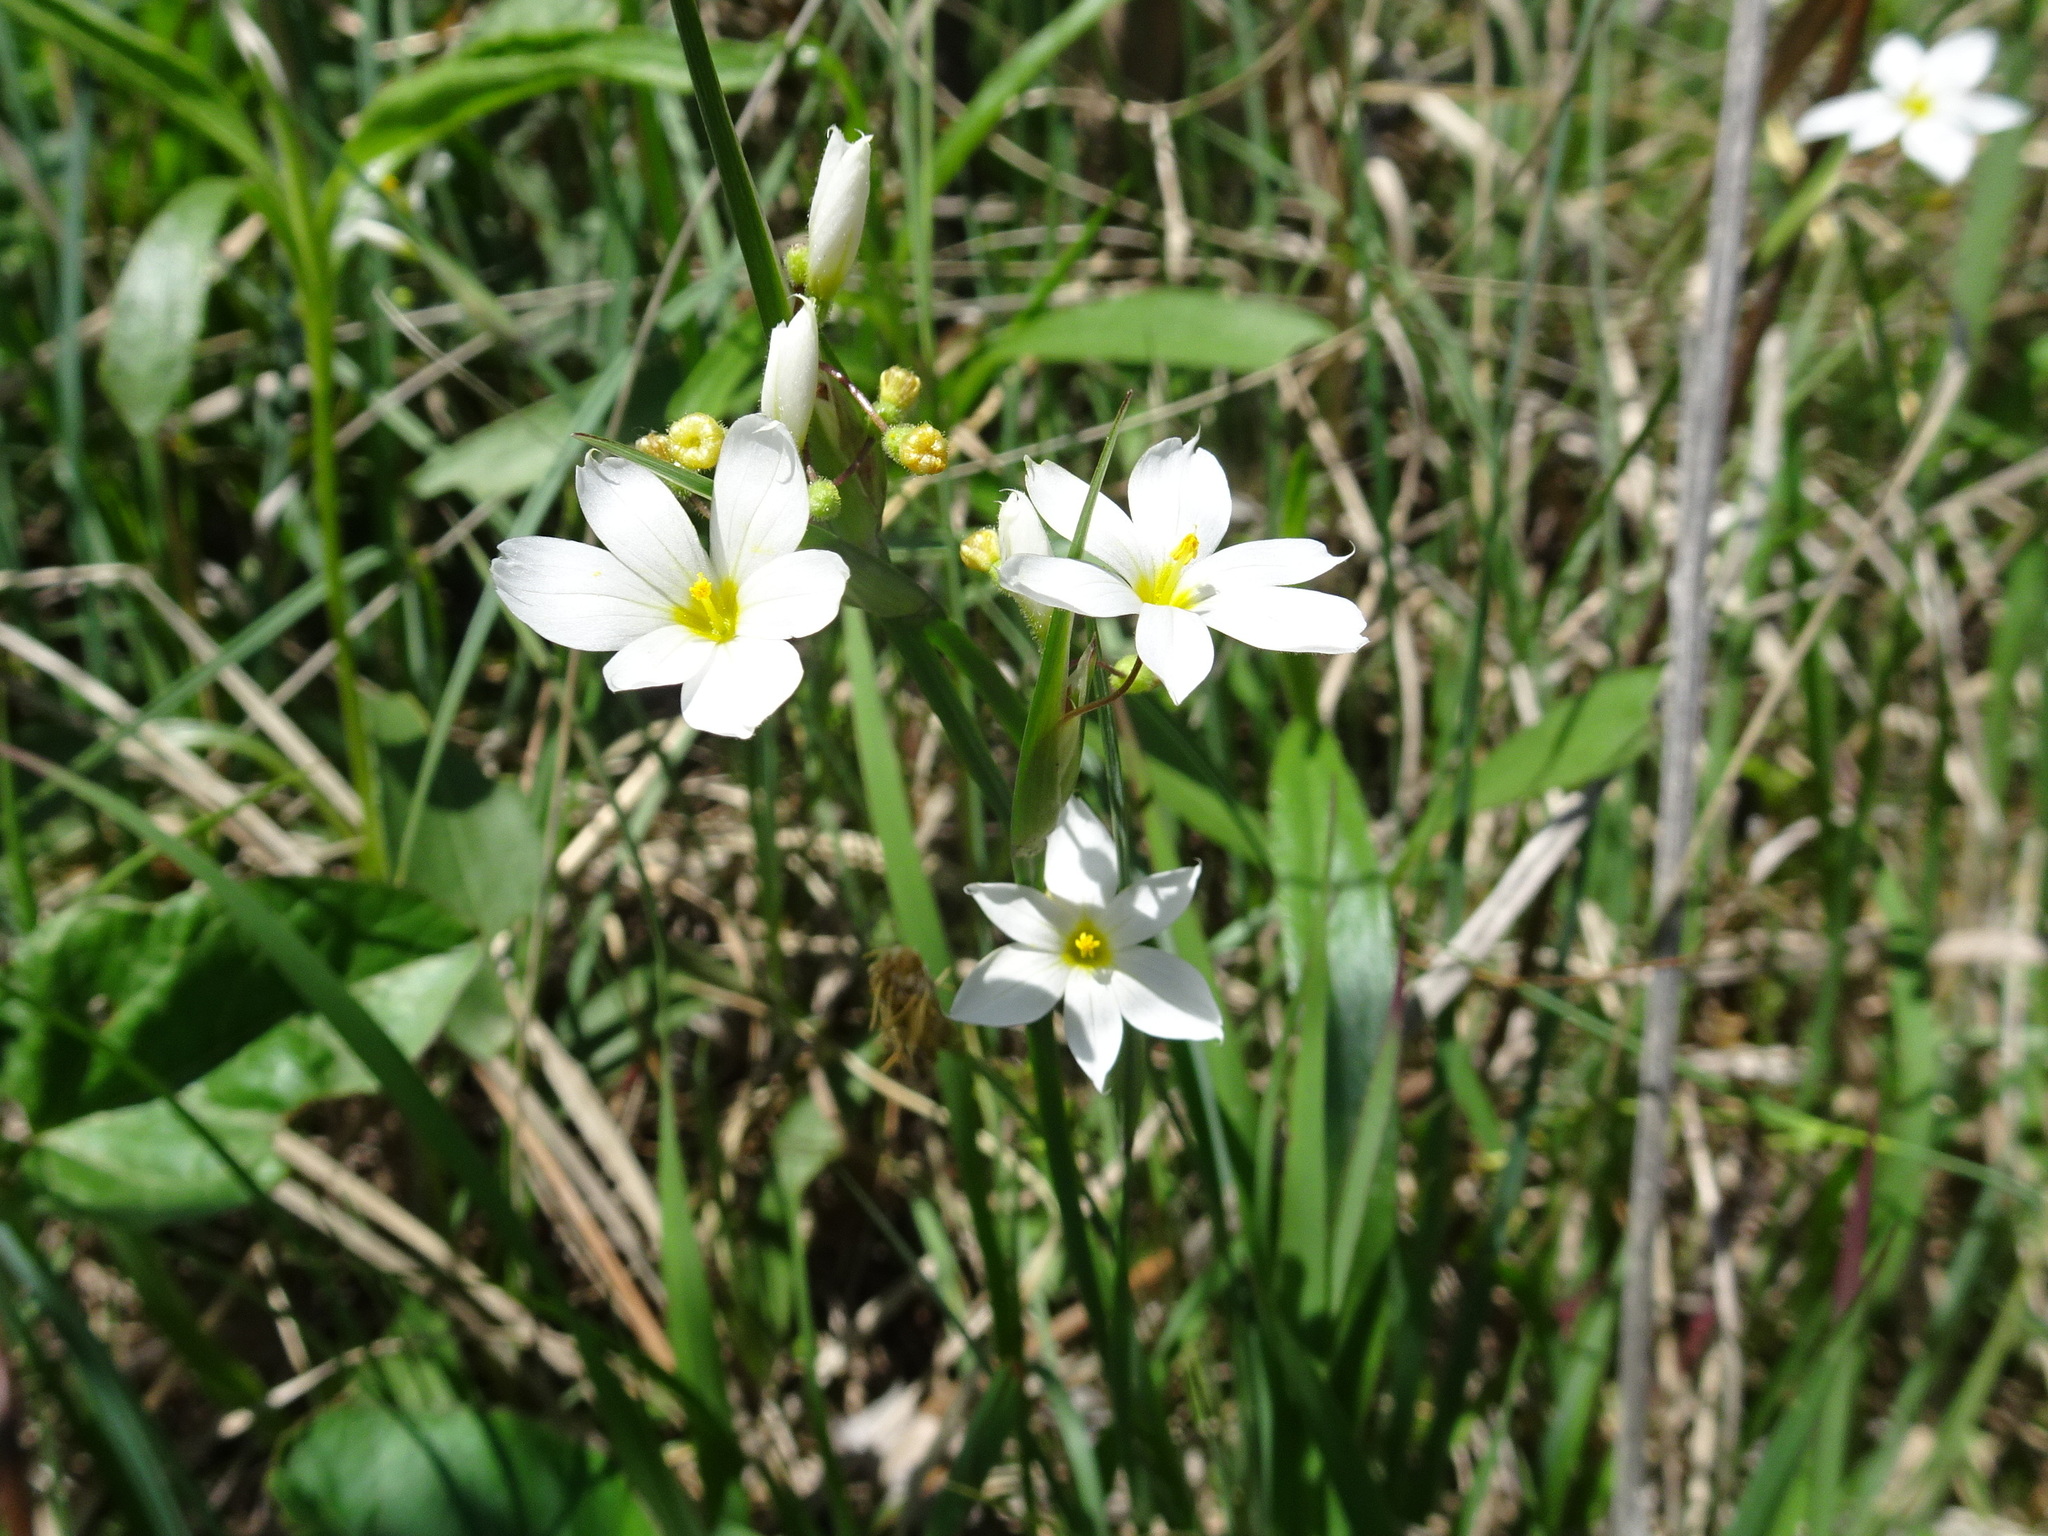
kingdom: Plantae
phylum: Tracheophyta
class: Liliopsida
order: Asparagales
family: Iridaceae
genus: Sisyrinchium
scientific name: Sisyrinchium campestre
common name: Prairie blue-eyed-grass
